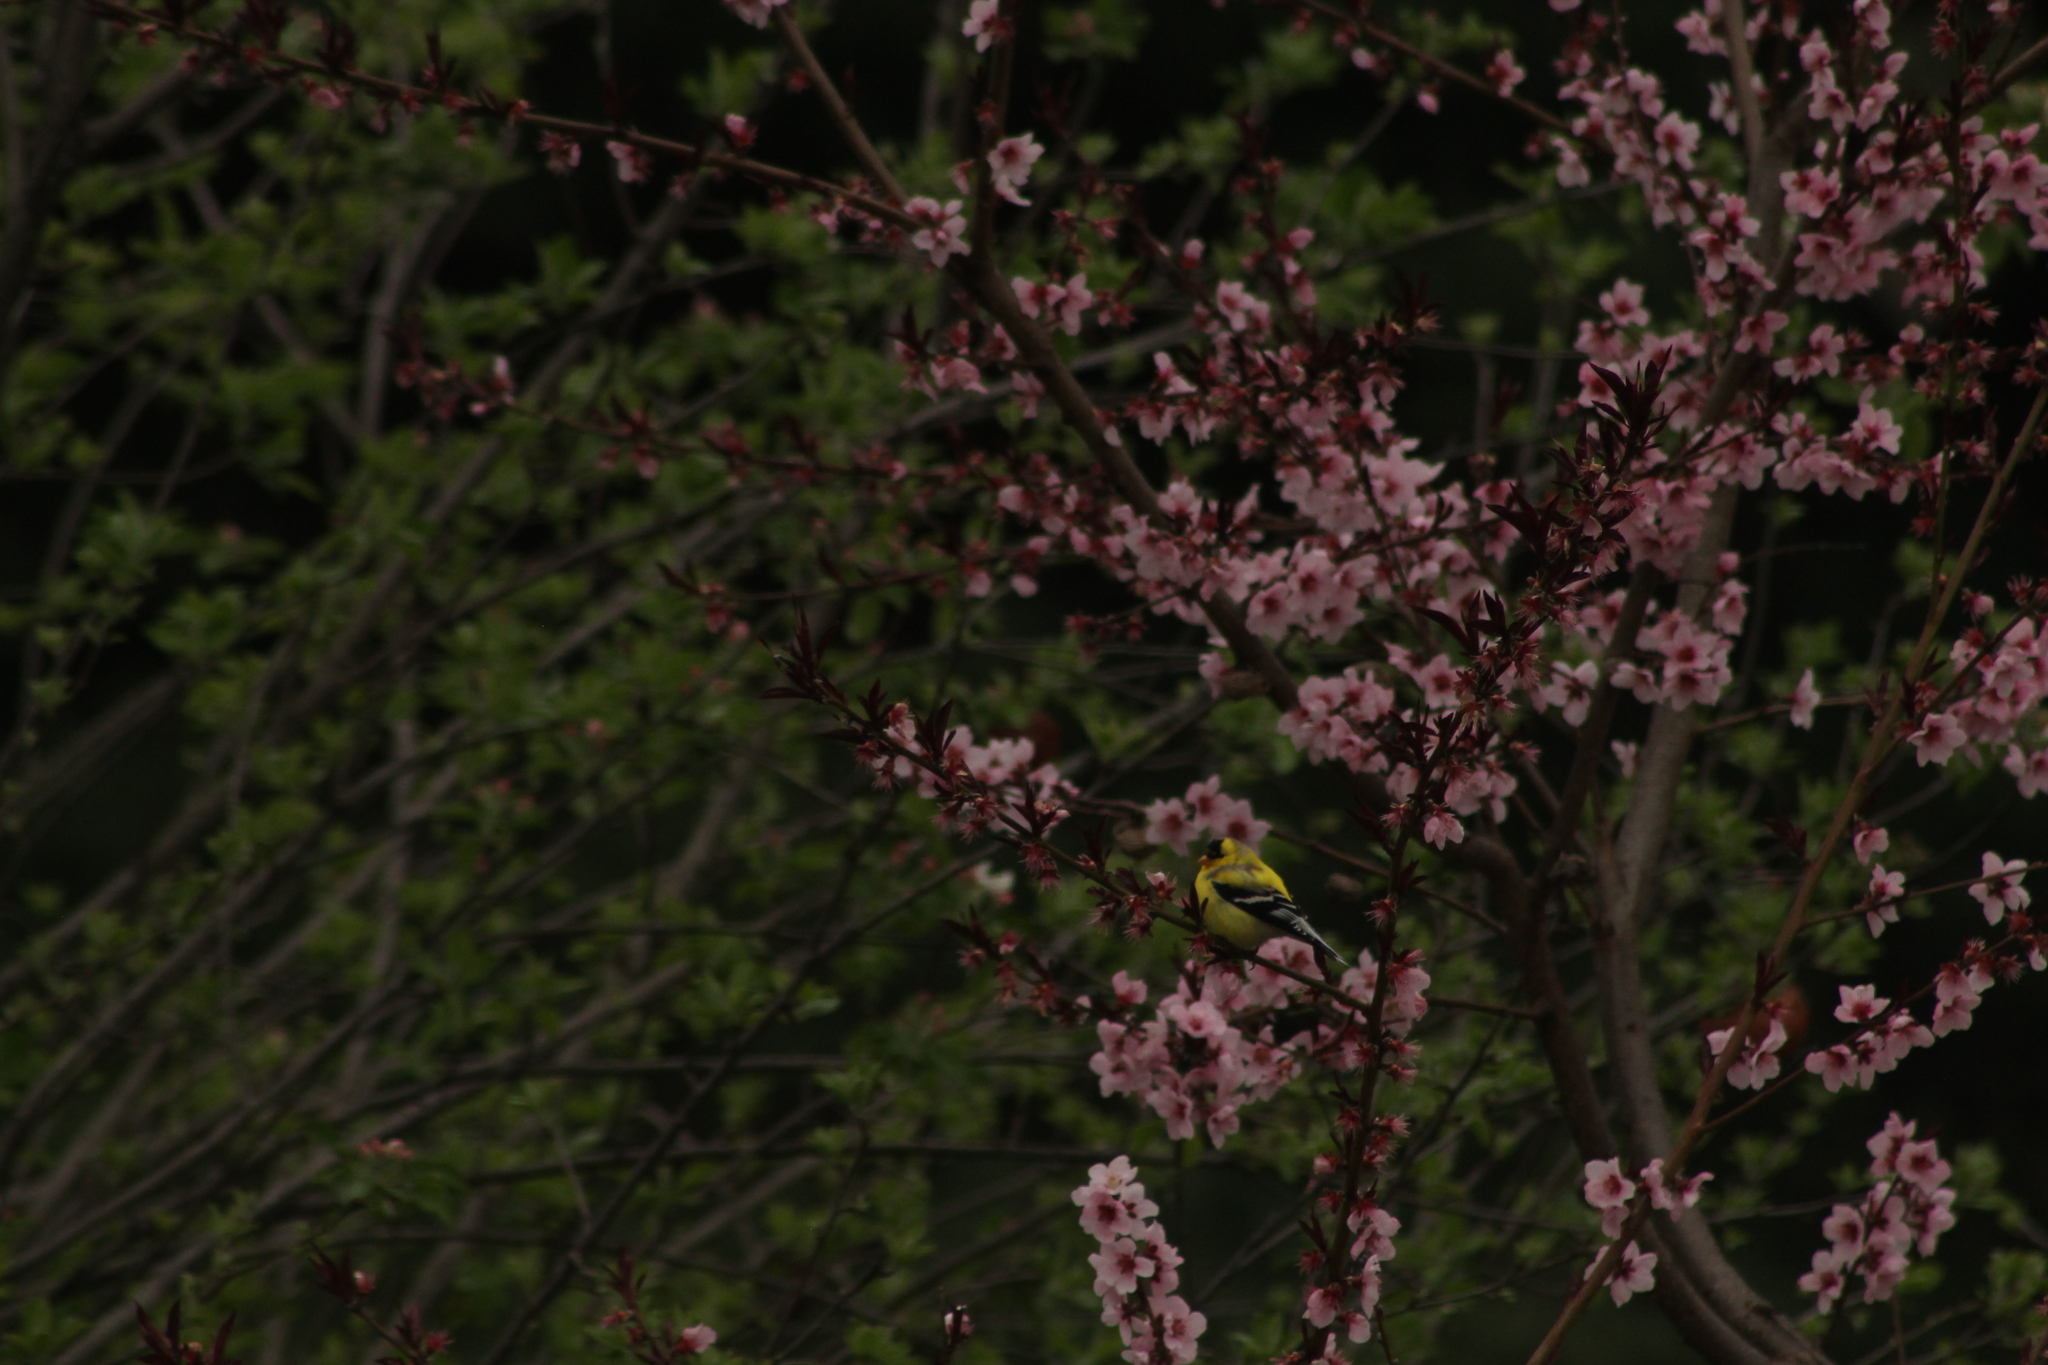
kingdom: Animalia
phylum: Chordata
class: Aves
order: Passeriformes
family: Fringillidae
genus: Spinus
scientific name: Spinus tristis
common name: American goldfinch
